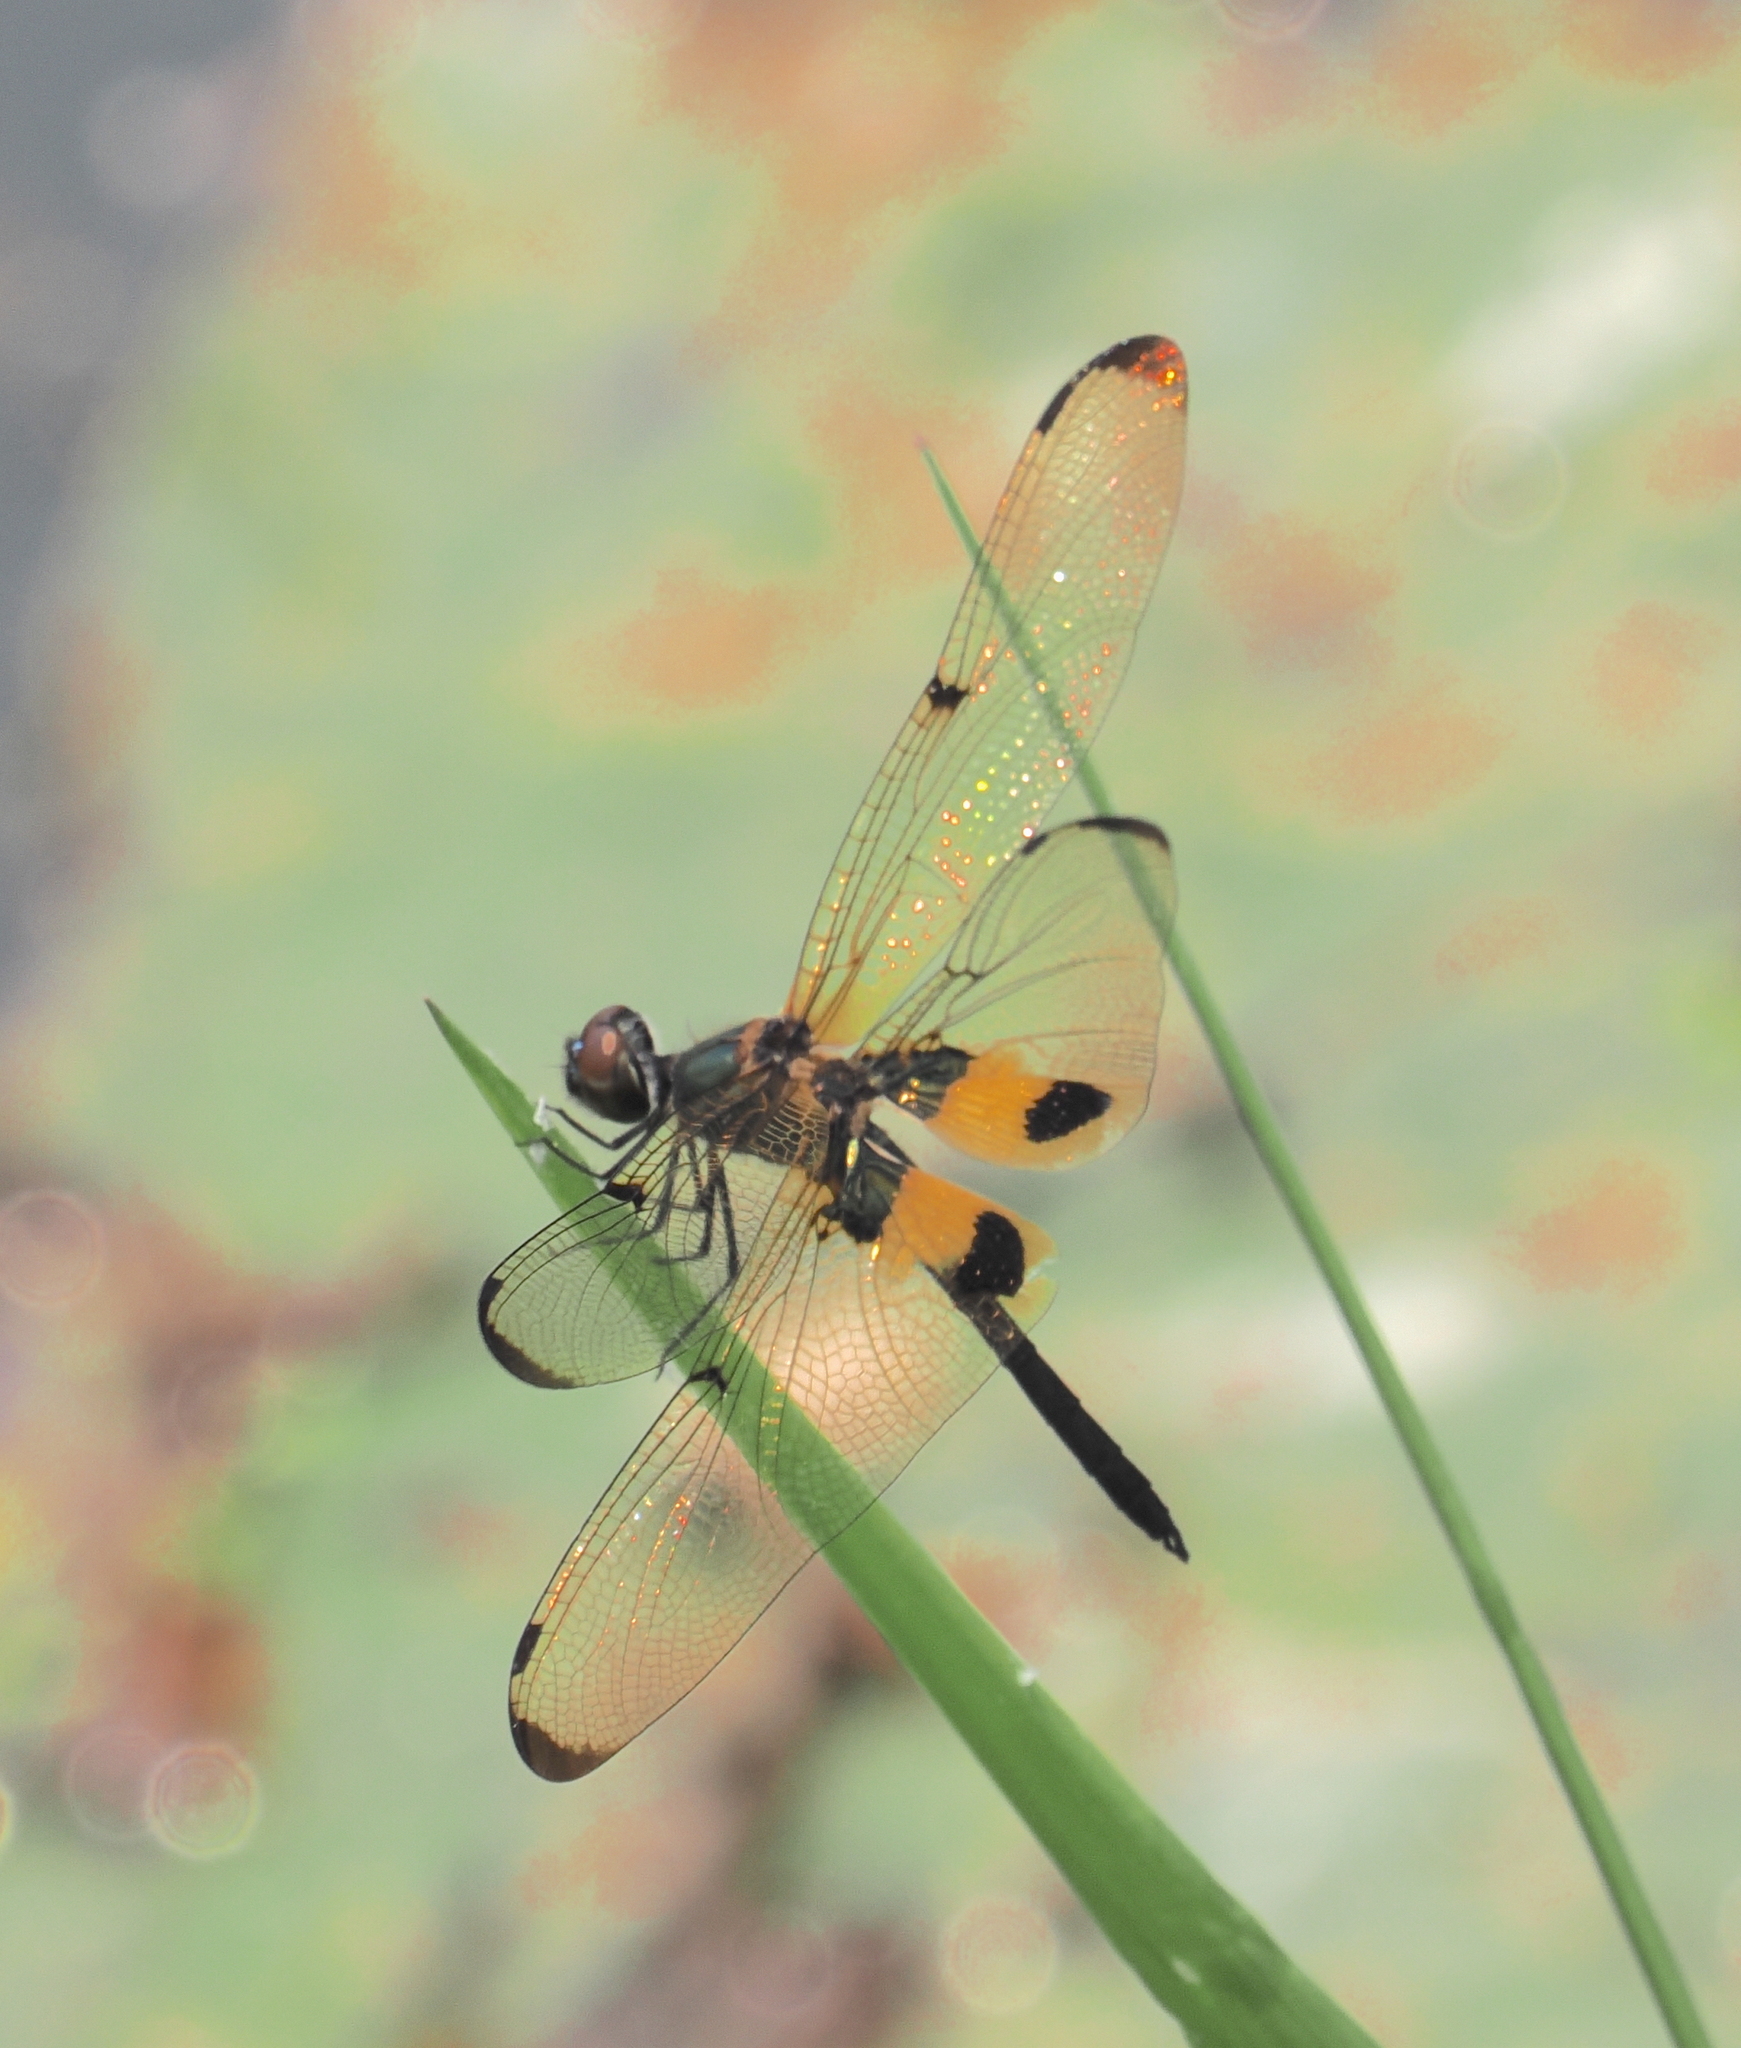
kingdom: Animalia
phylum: Arthropoda
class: Insecta
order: Odonata
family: Libellulidae
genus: Rhyothemis
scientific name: Rhyothemis phyllis
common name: Yellow-barred flutterer
